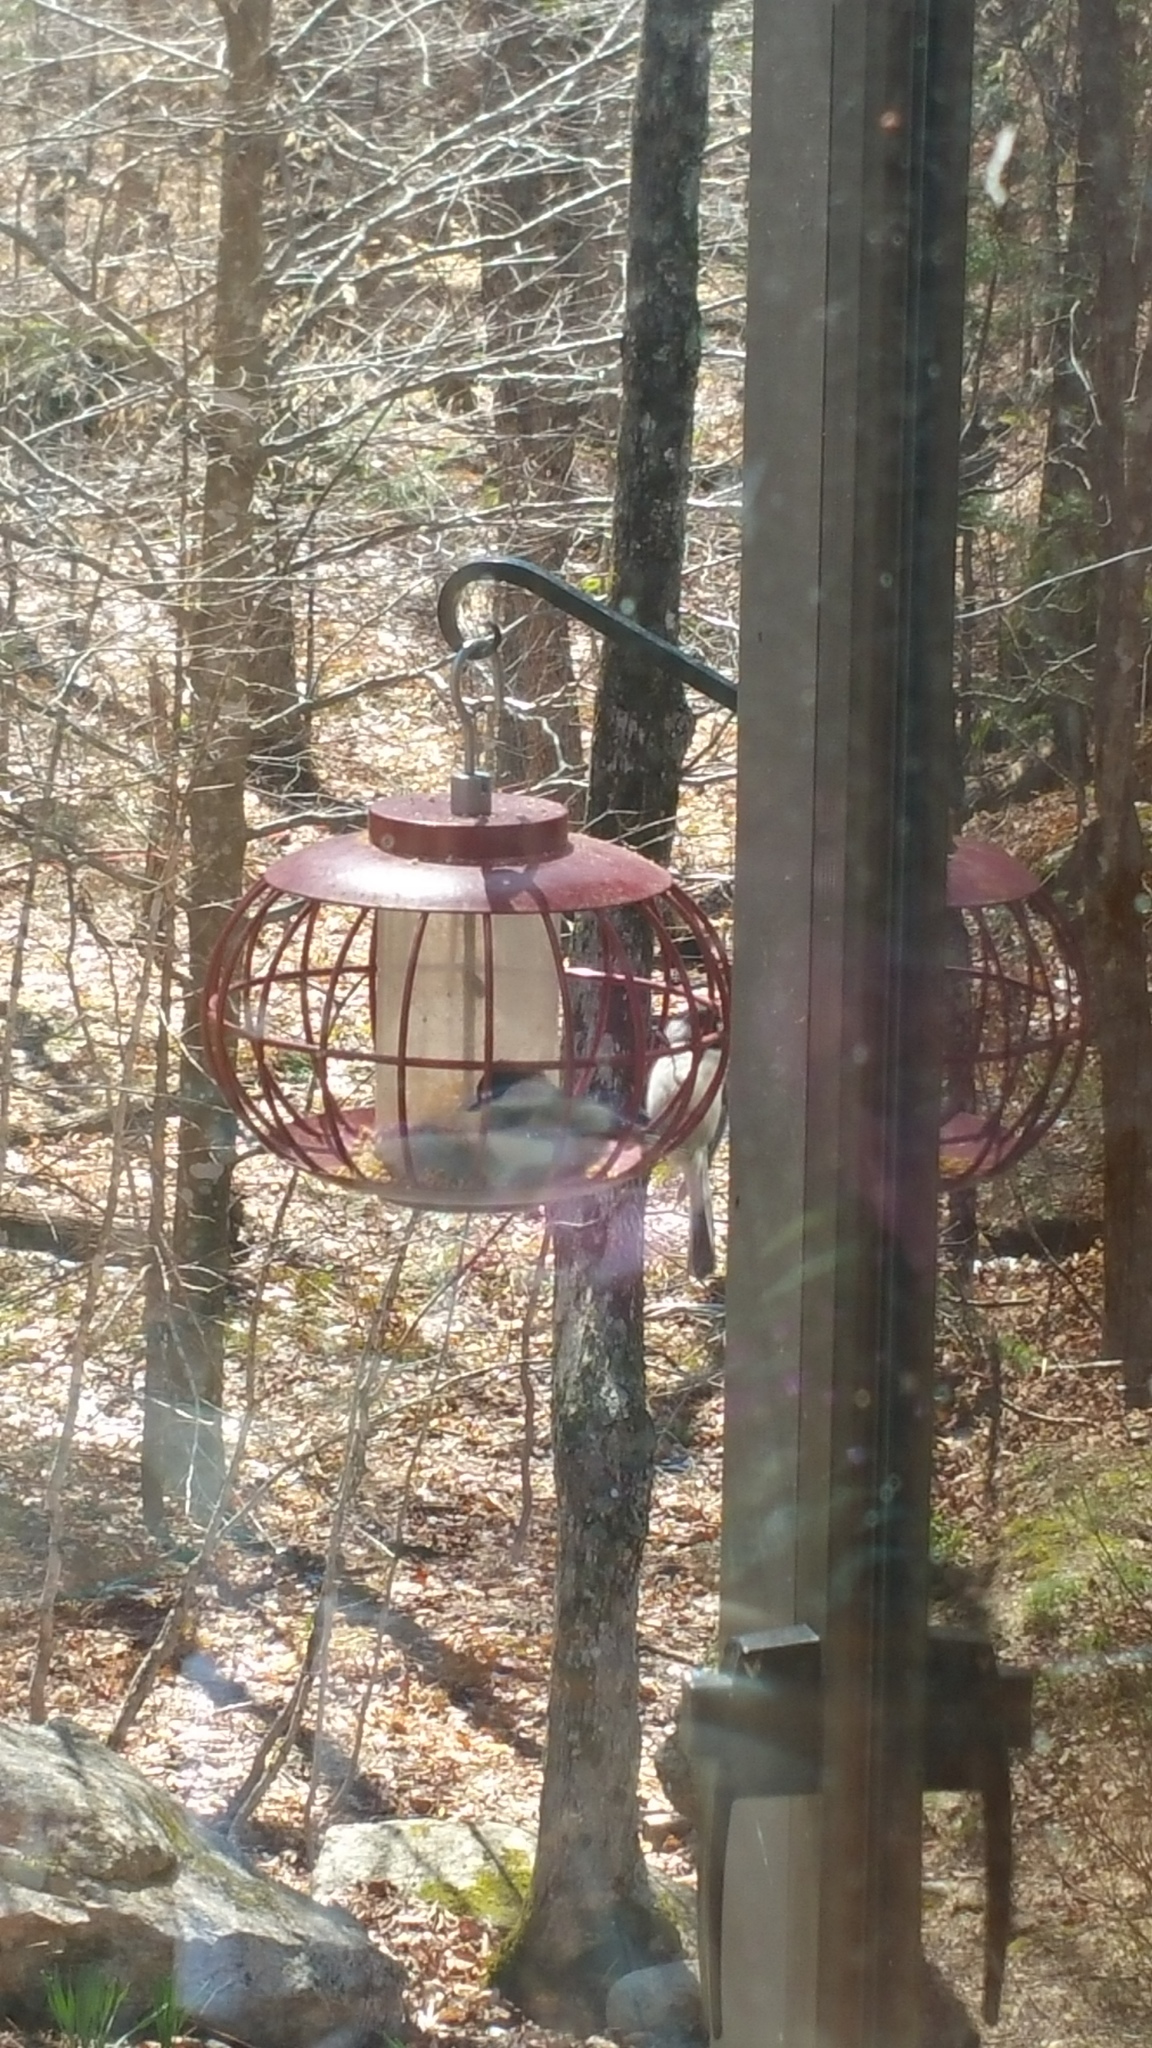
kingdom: Animalia
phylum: Chordata
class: Aves
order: Passeriformes
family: Paridae
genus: Poecile
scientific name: Poecile atricapillus
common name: Black-capped chickadee
